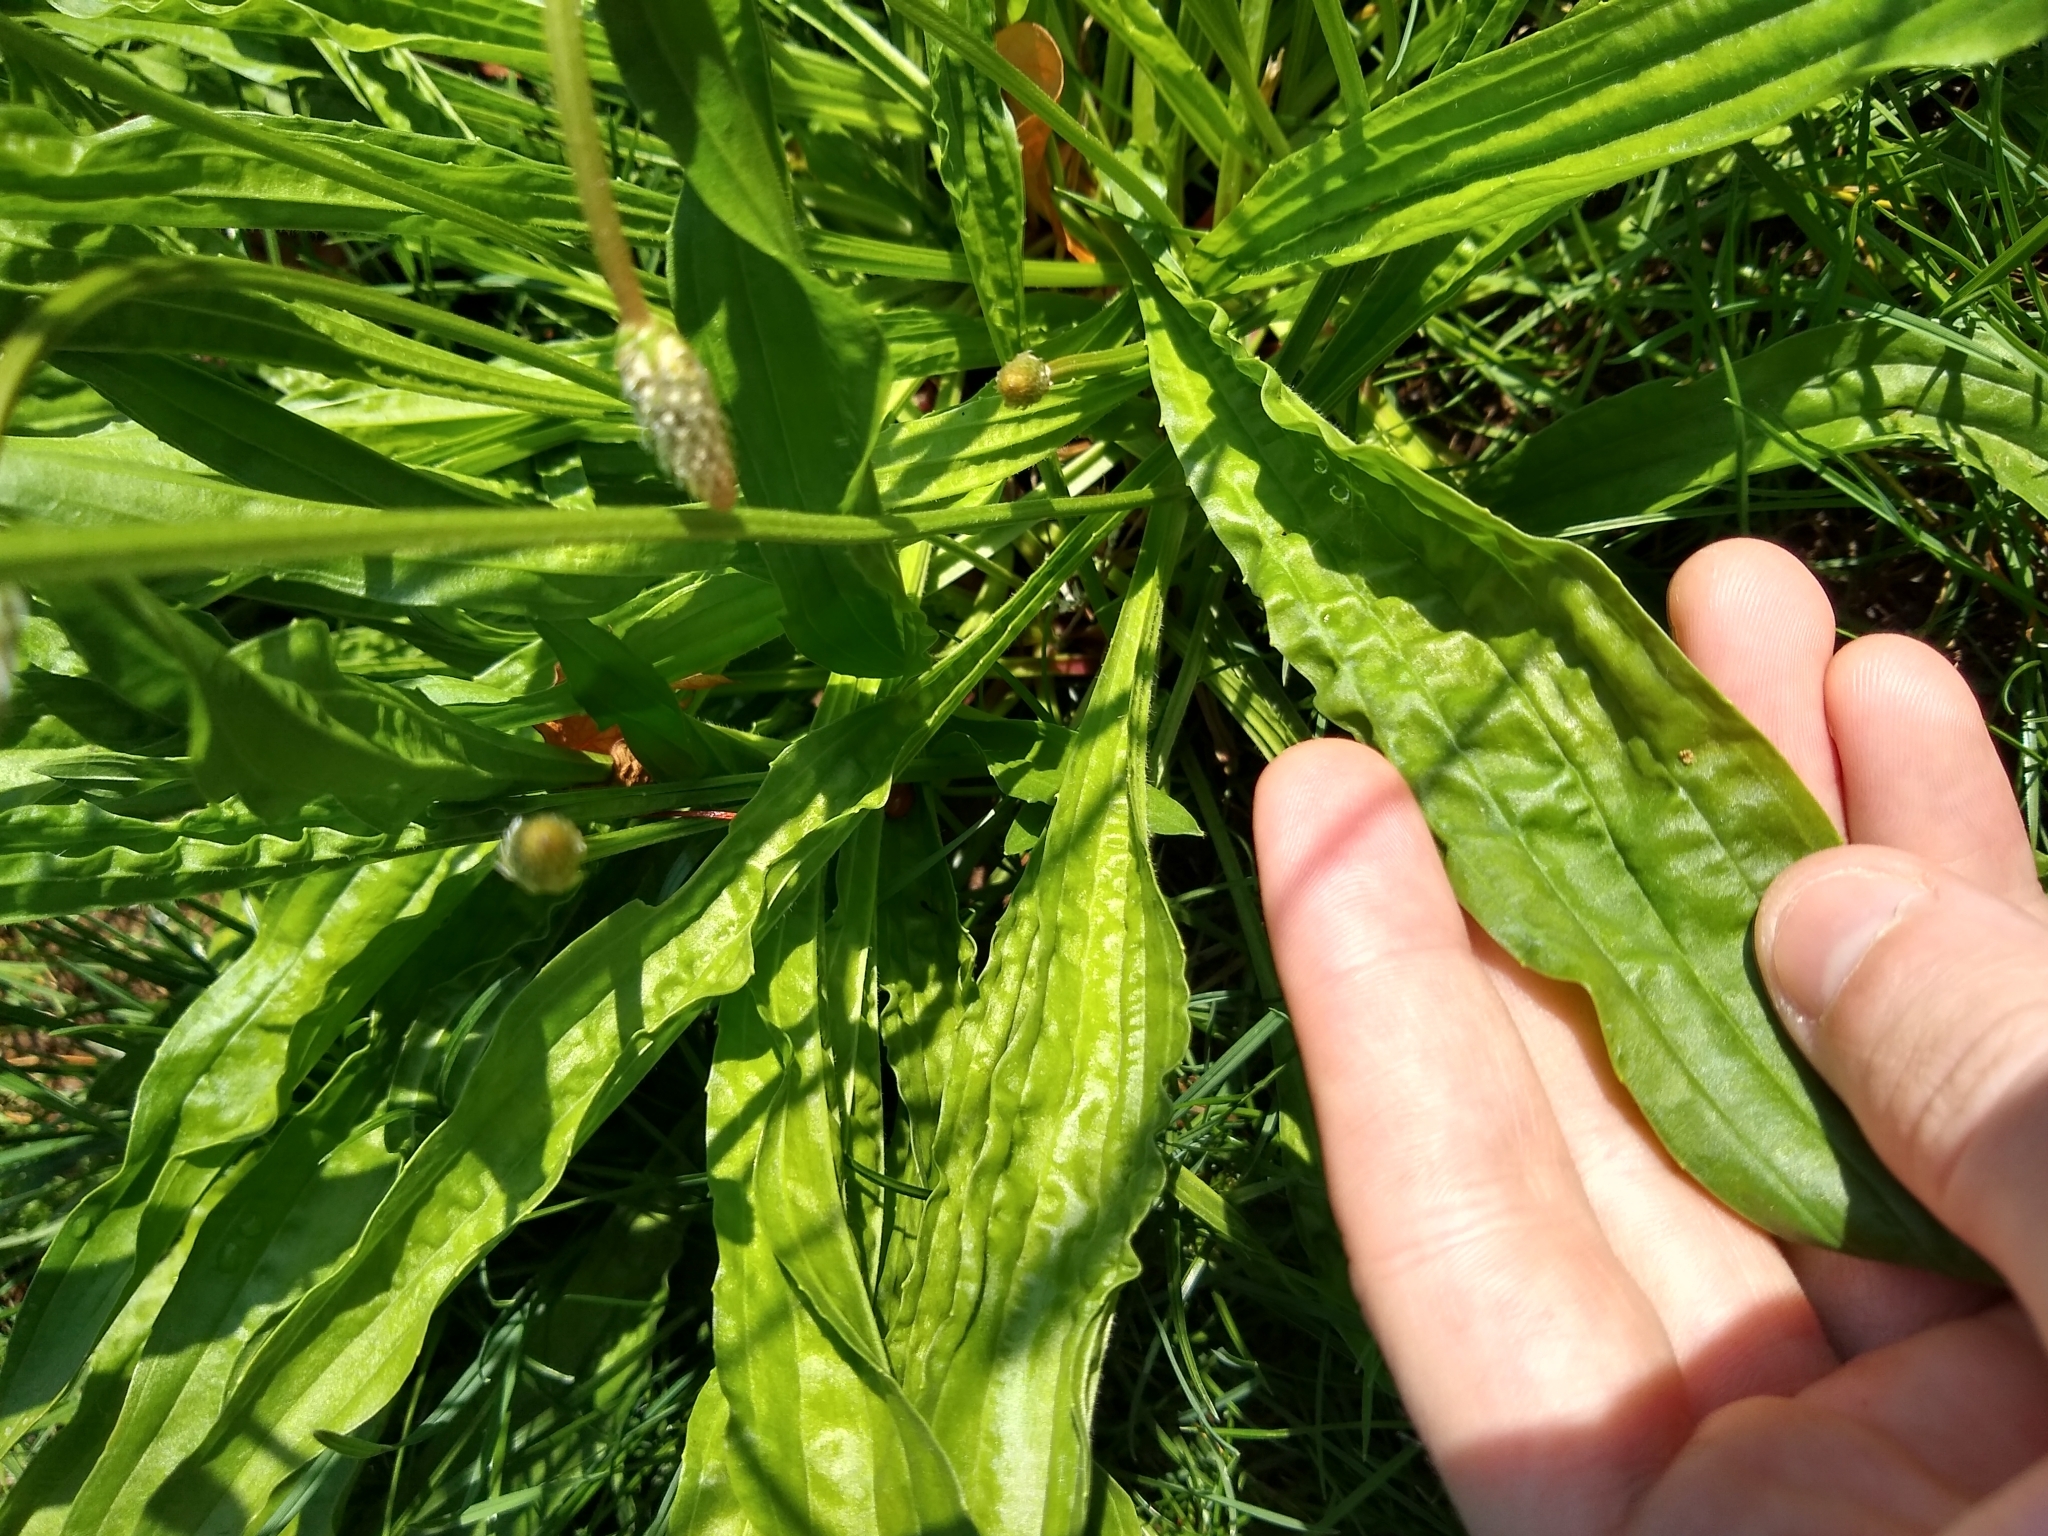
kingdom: Plantae
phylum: Tracheophyta
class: Magnoliopsida
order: Lamiales
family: Plantaginaceae
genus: Plantago
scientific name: Plantago lanceolata
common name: Ribwort plantain
